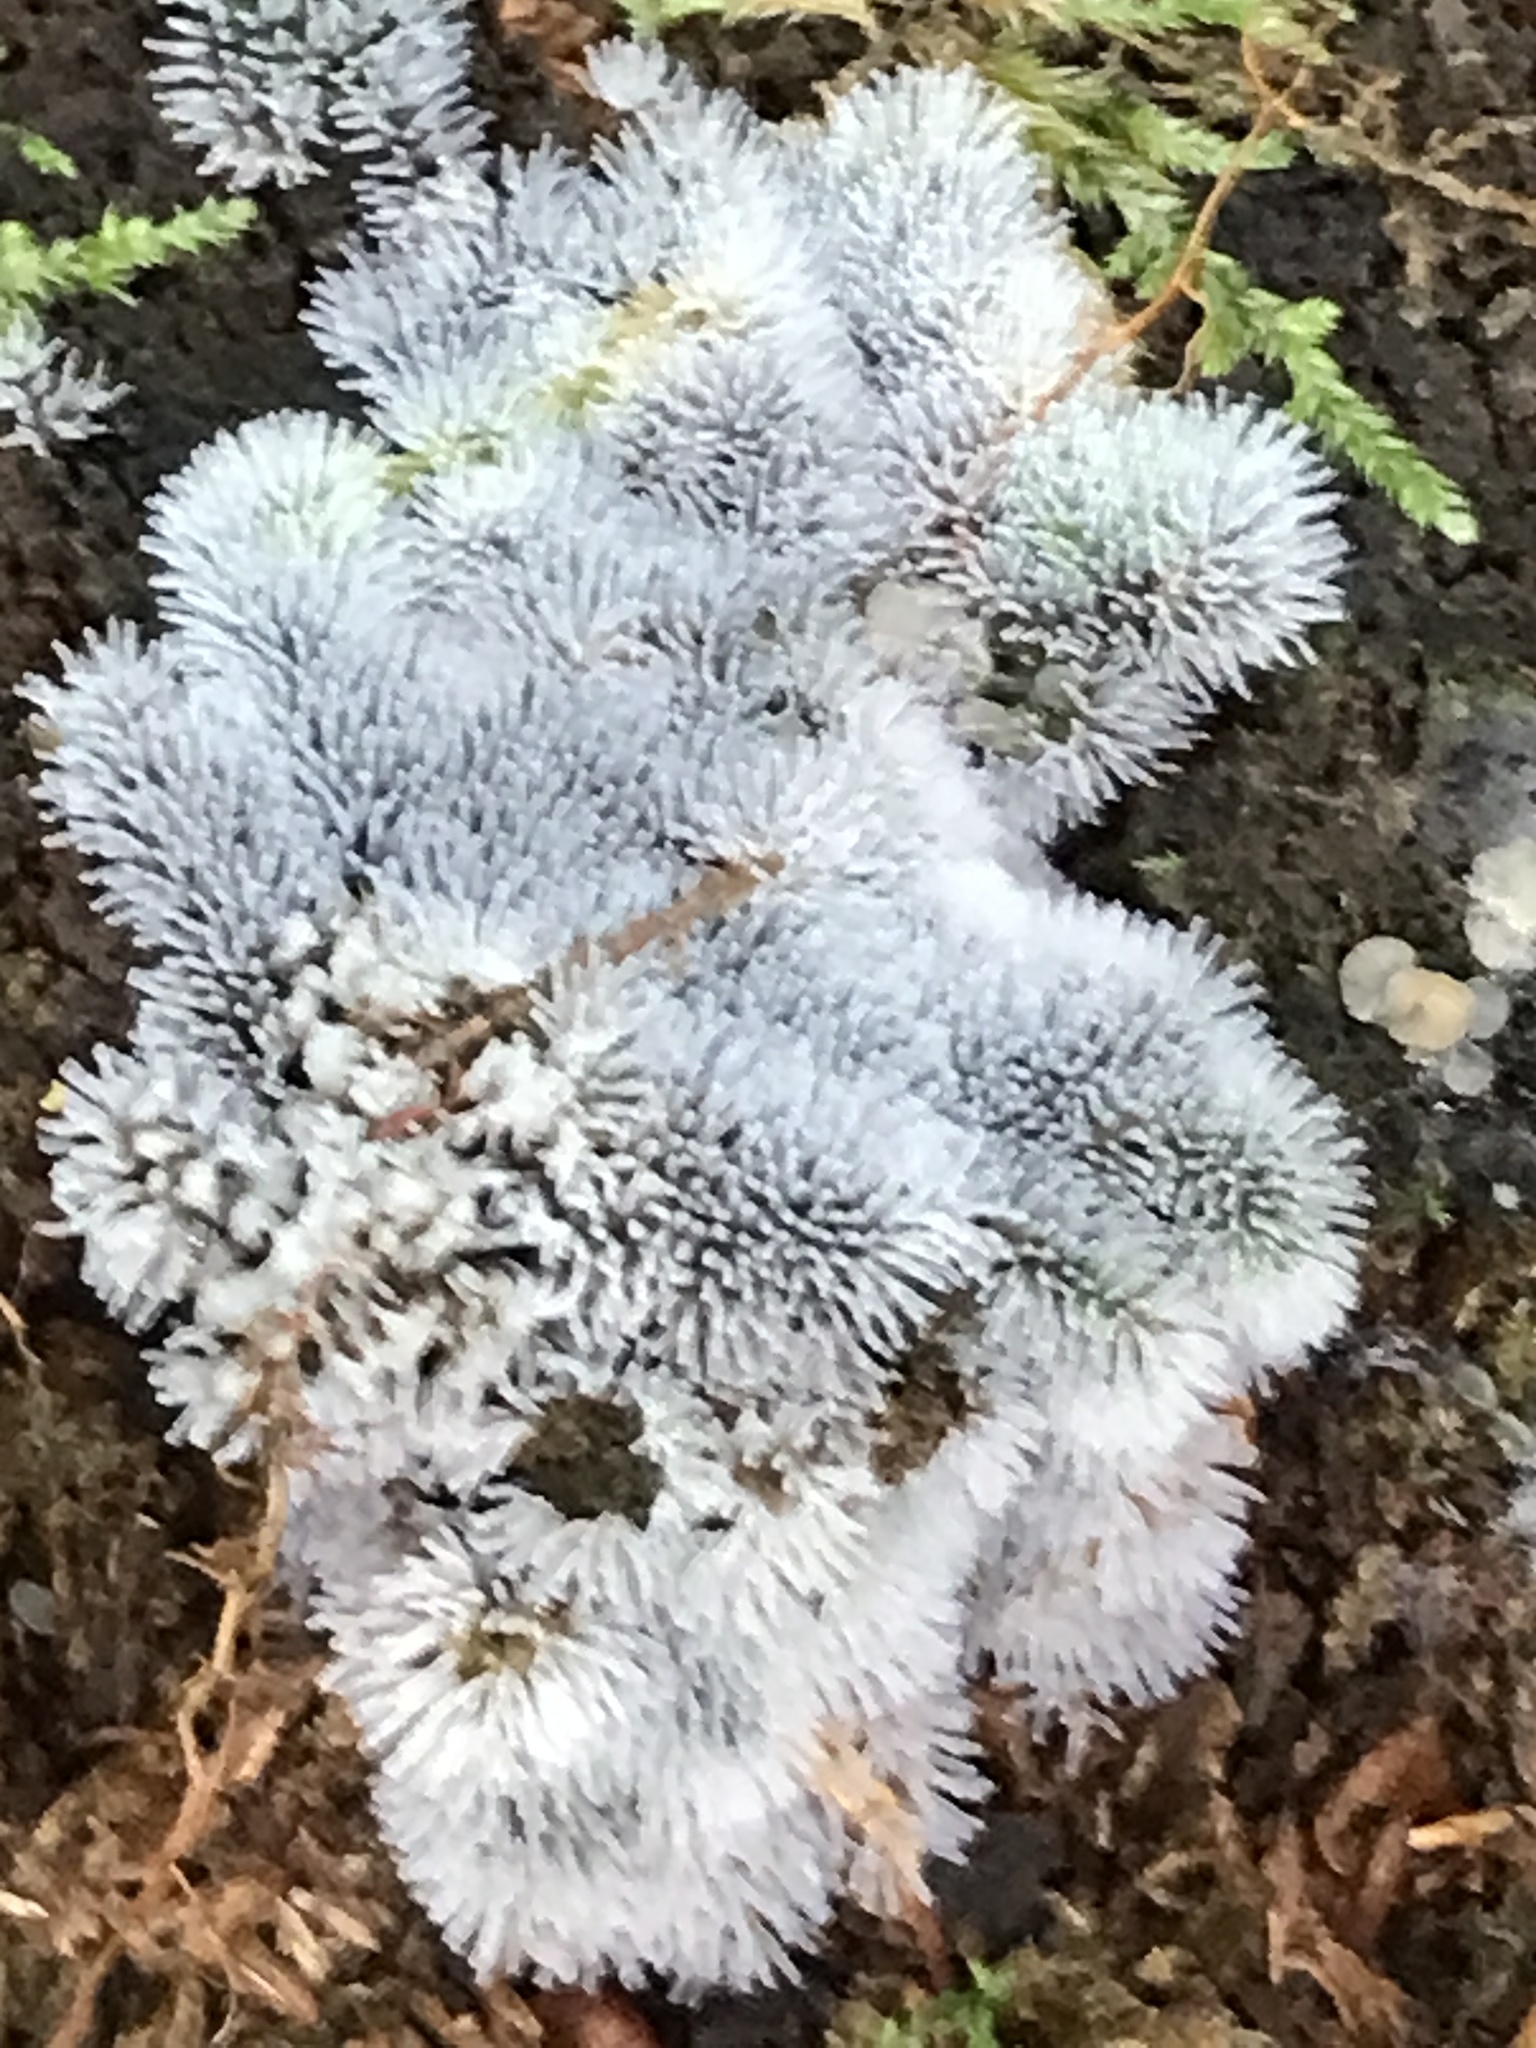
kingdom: Protozoa
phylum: Mycetozoa
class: Protosteliomycetes
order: Ceratiomyxales
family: Ceratiomyxaceae
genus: Ceratiomyxa
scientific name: Ceratiomyxa fruticulosa
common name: Honeycomb coral slime mold
